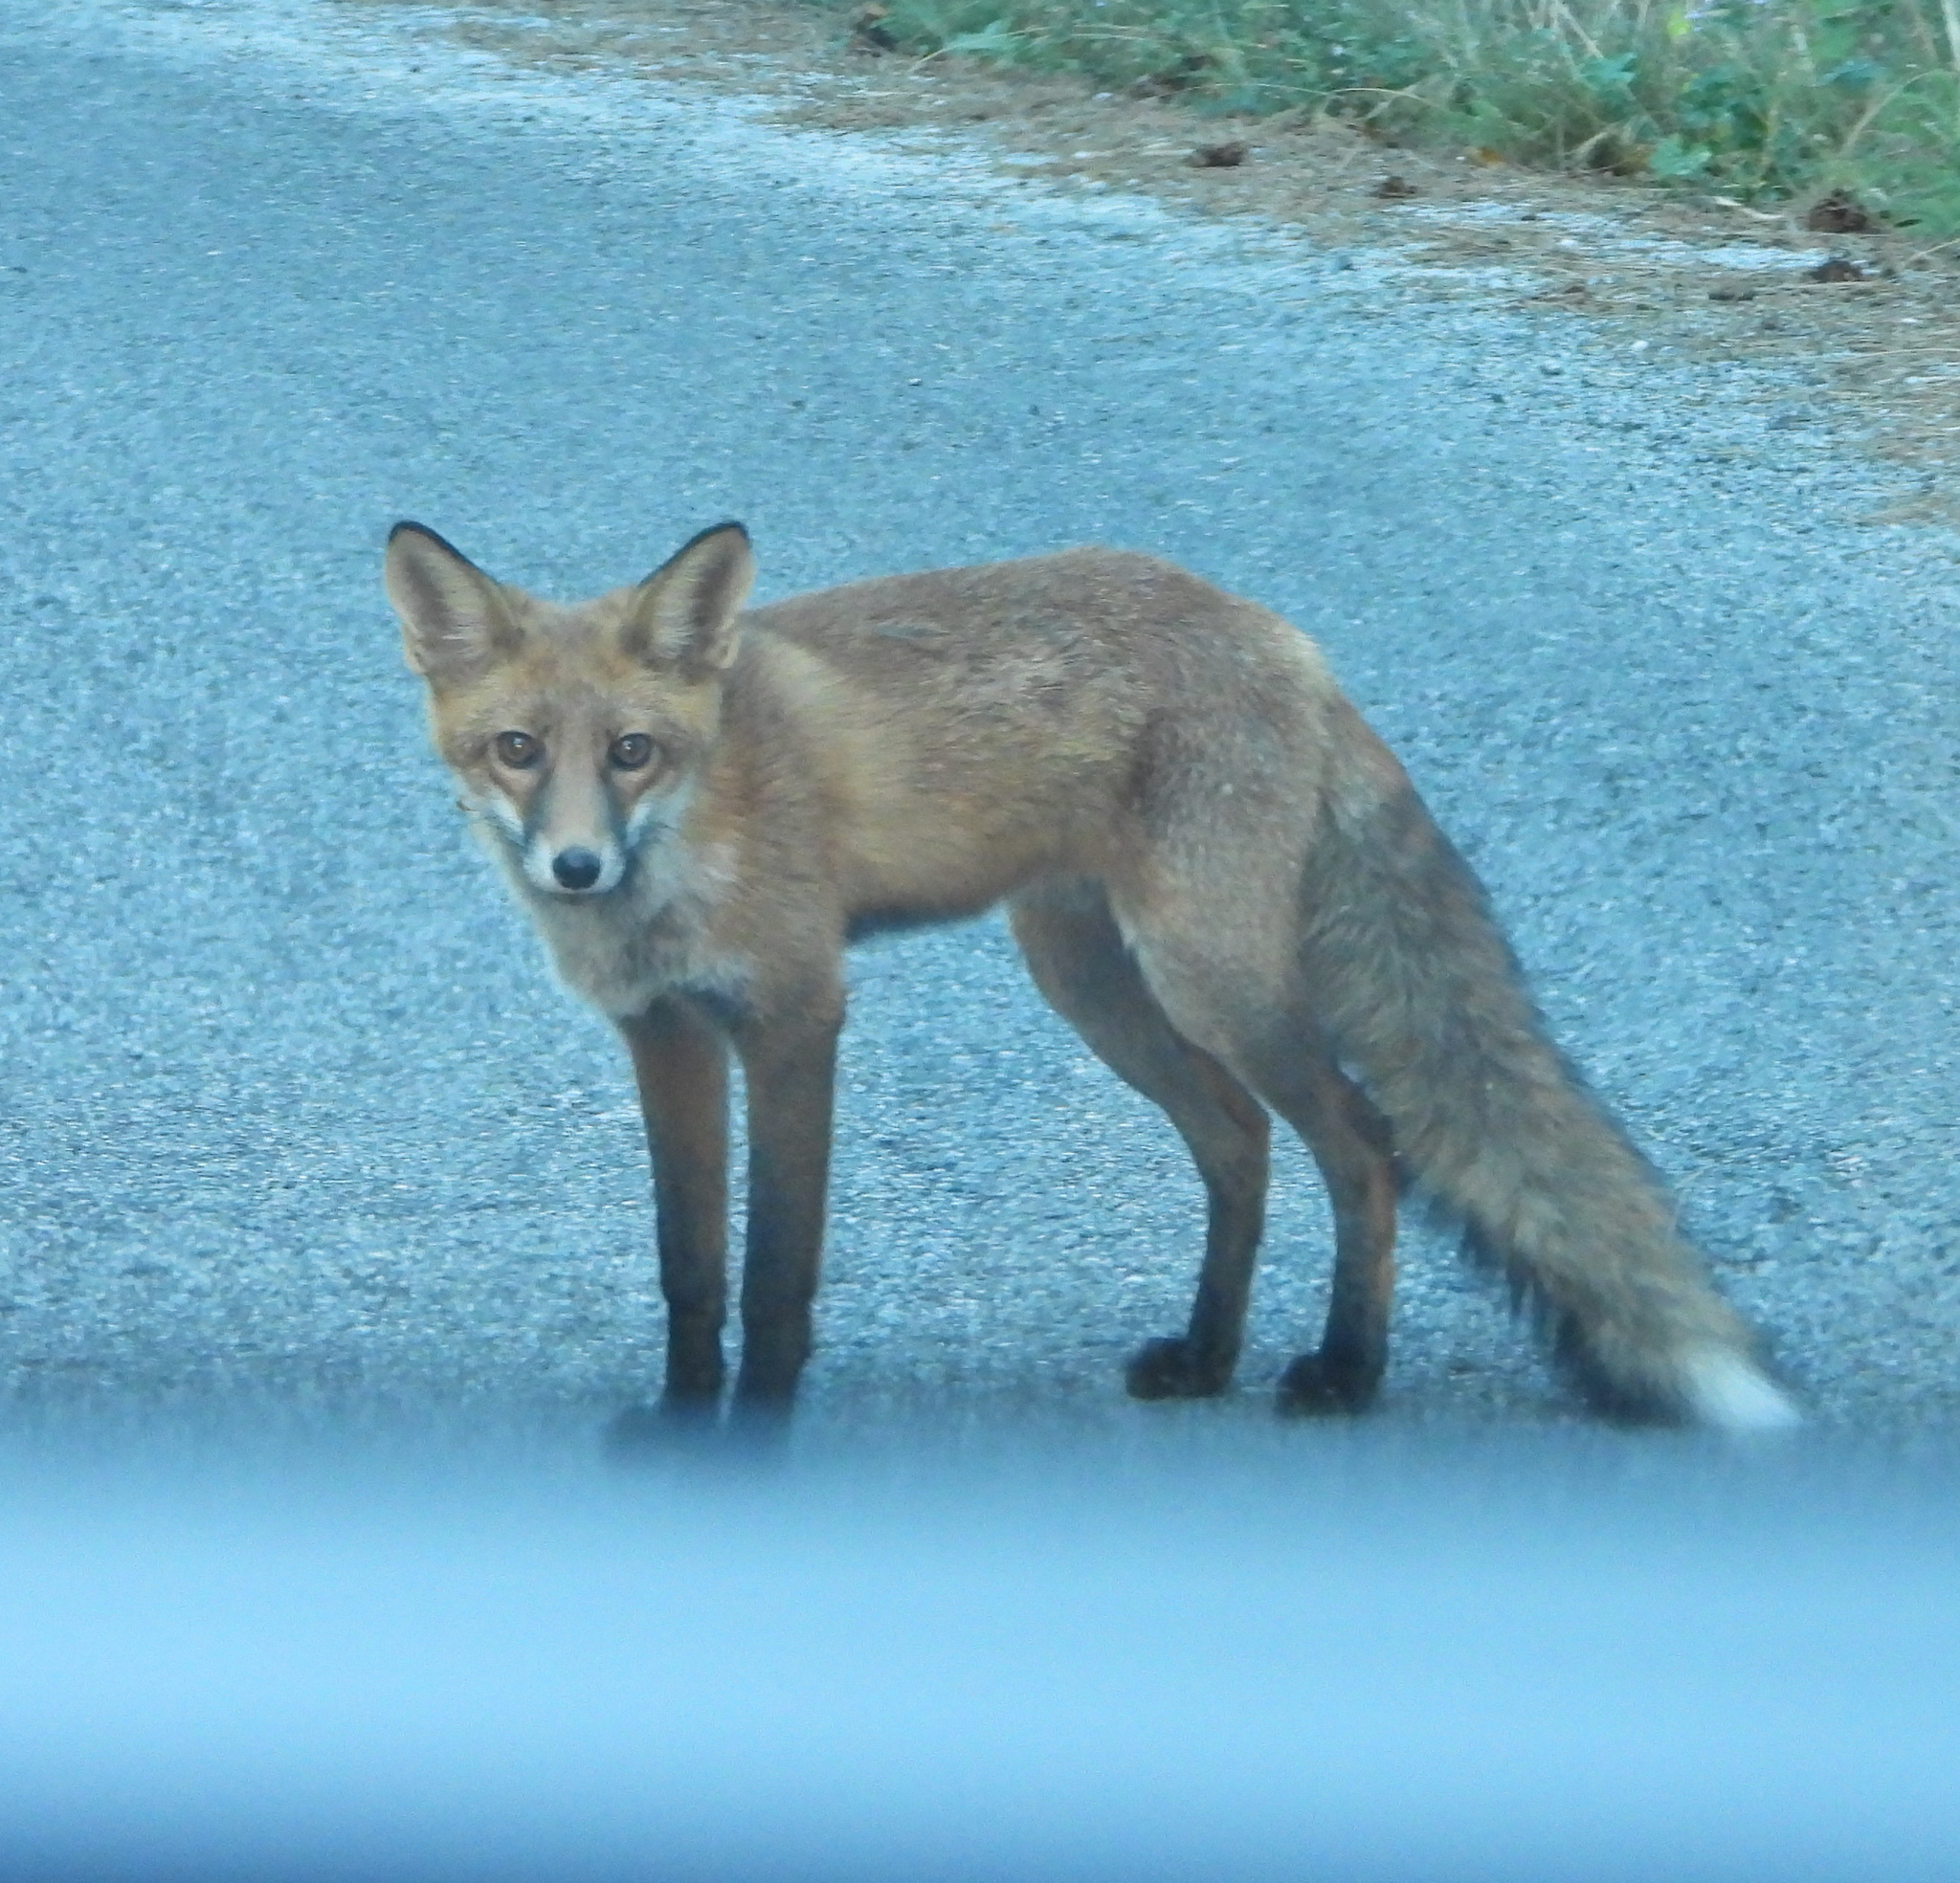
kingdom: Animalia
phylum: Chordata
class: Mammalia
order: Carnivora
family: Canidae
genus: Vulpes
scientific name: Vulpes vulpes
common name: Red fox
